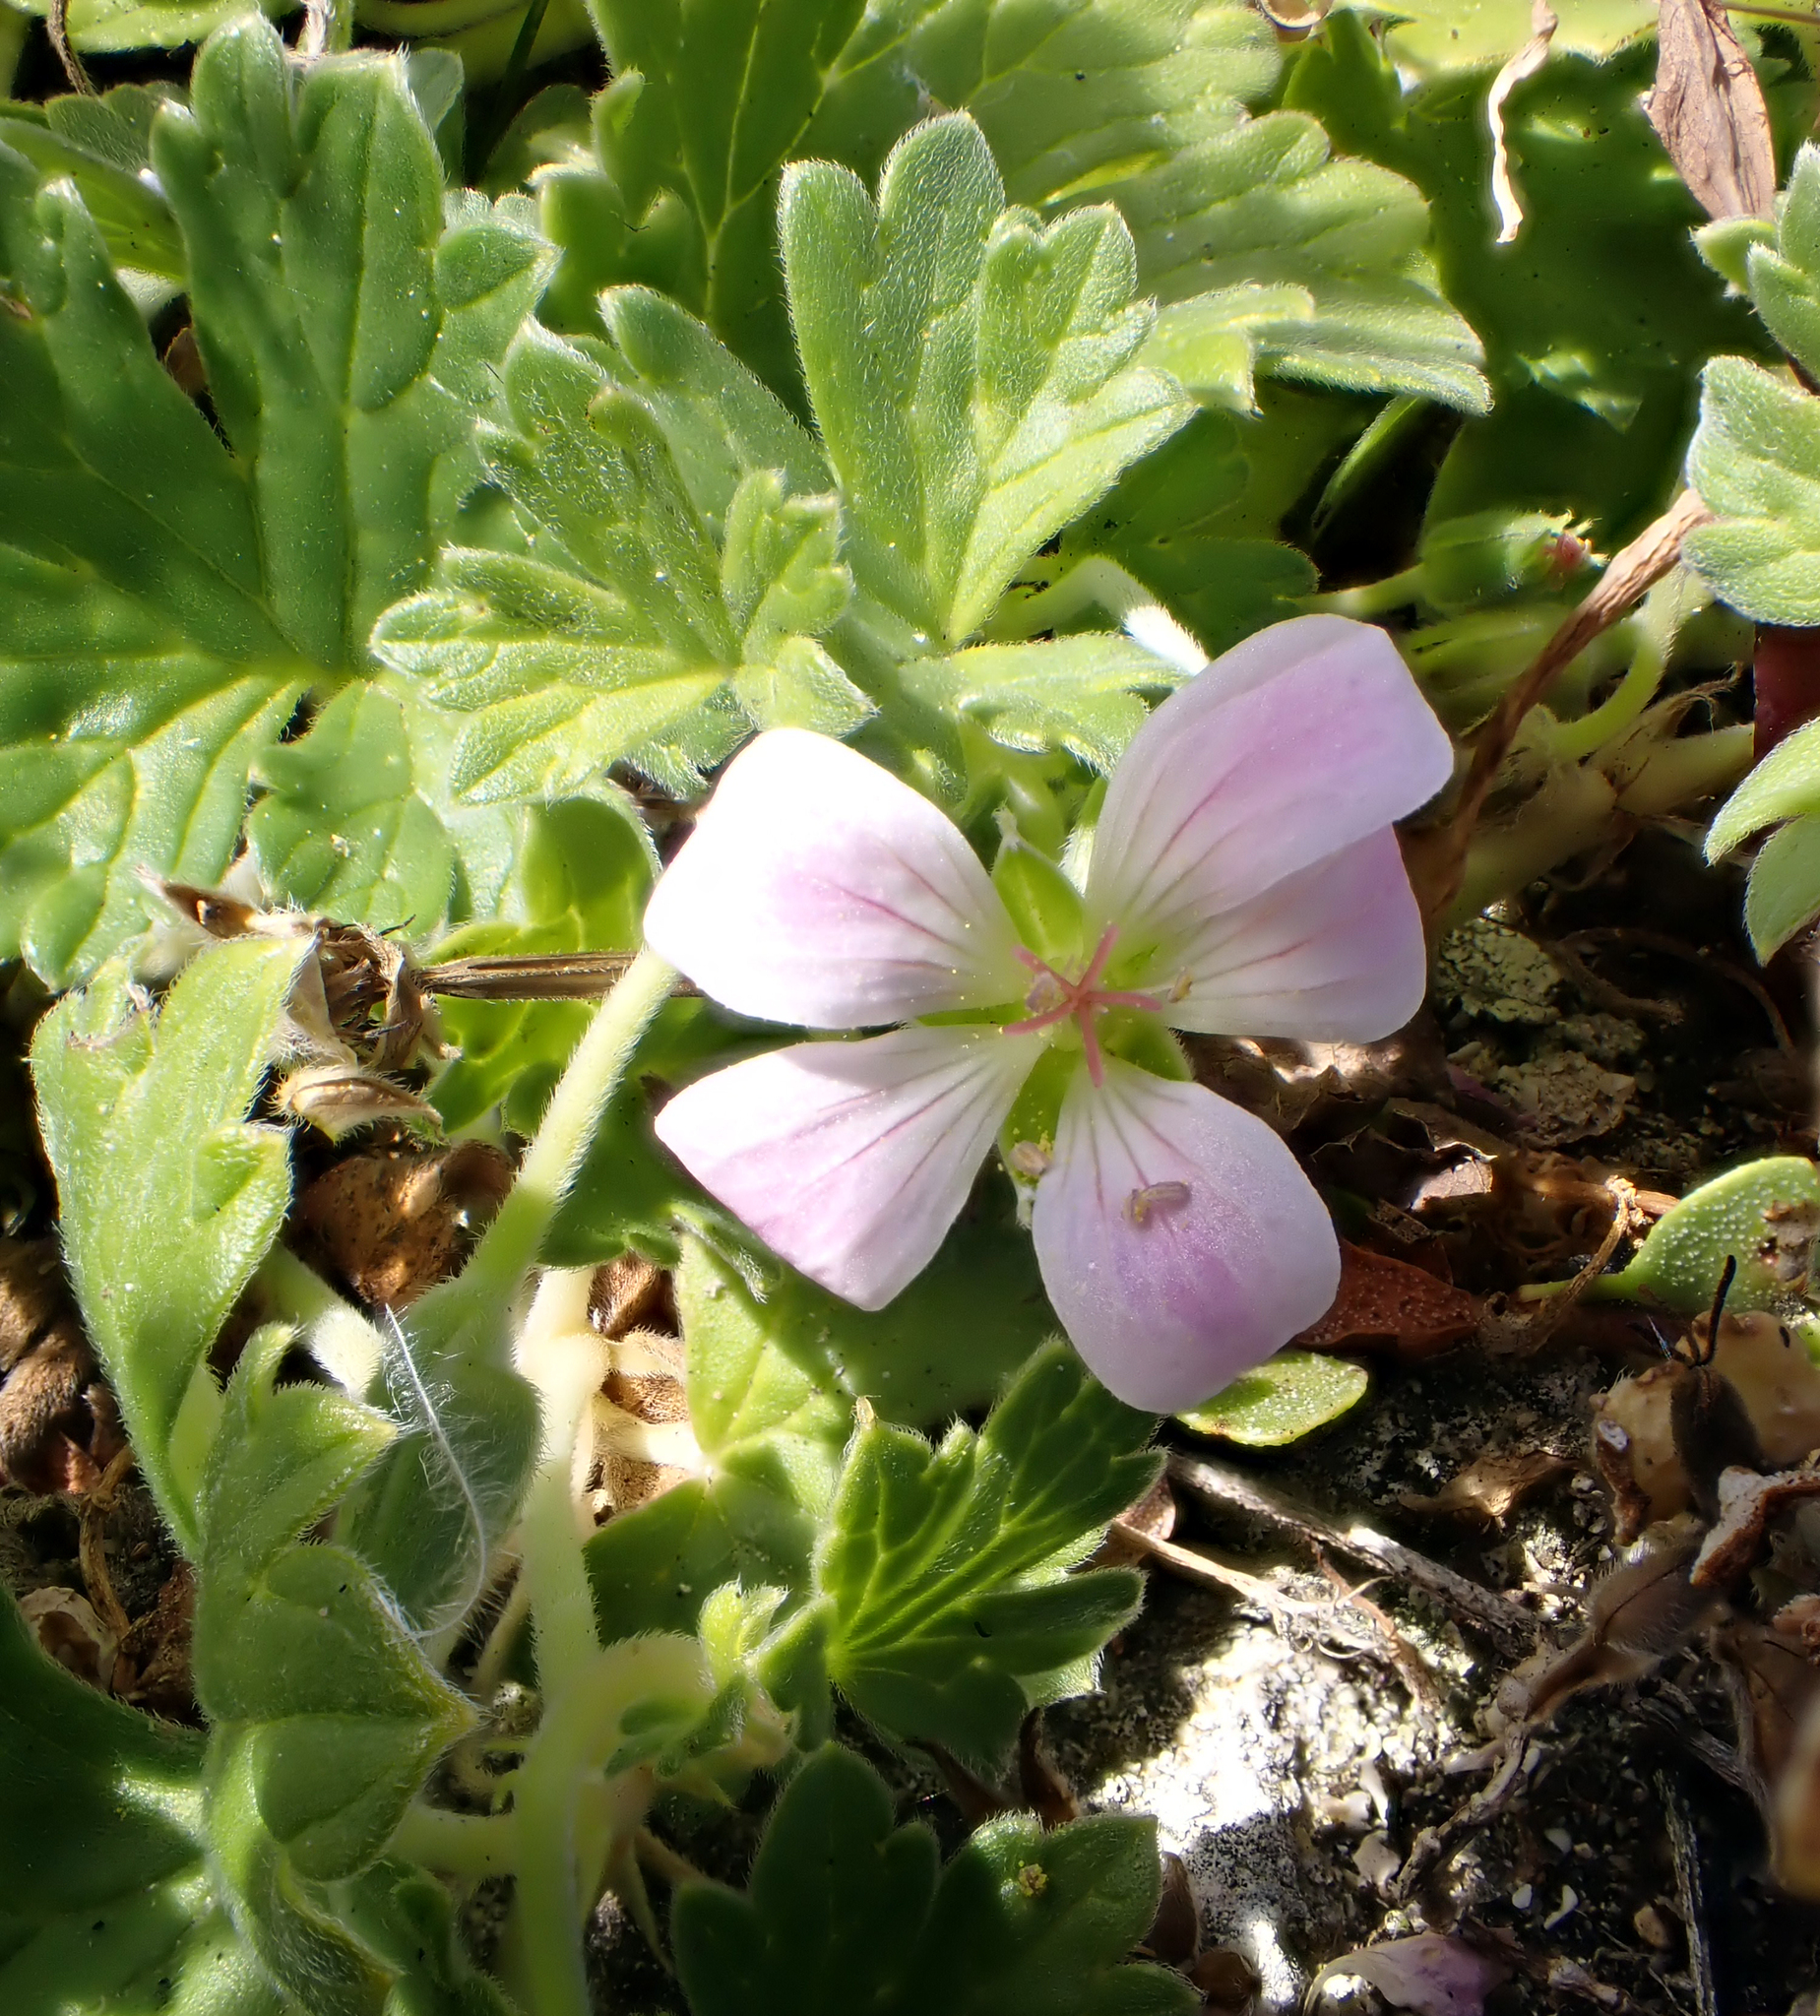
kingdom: Plantae
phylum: Tracheophyta
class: Magnoliopsida
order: Geraniales
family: Geraniaceae
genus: Geranium
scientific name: Geranium traversii
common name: Cranesbill
